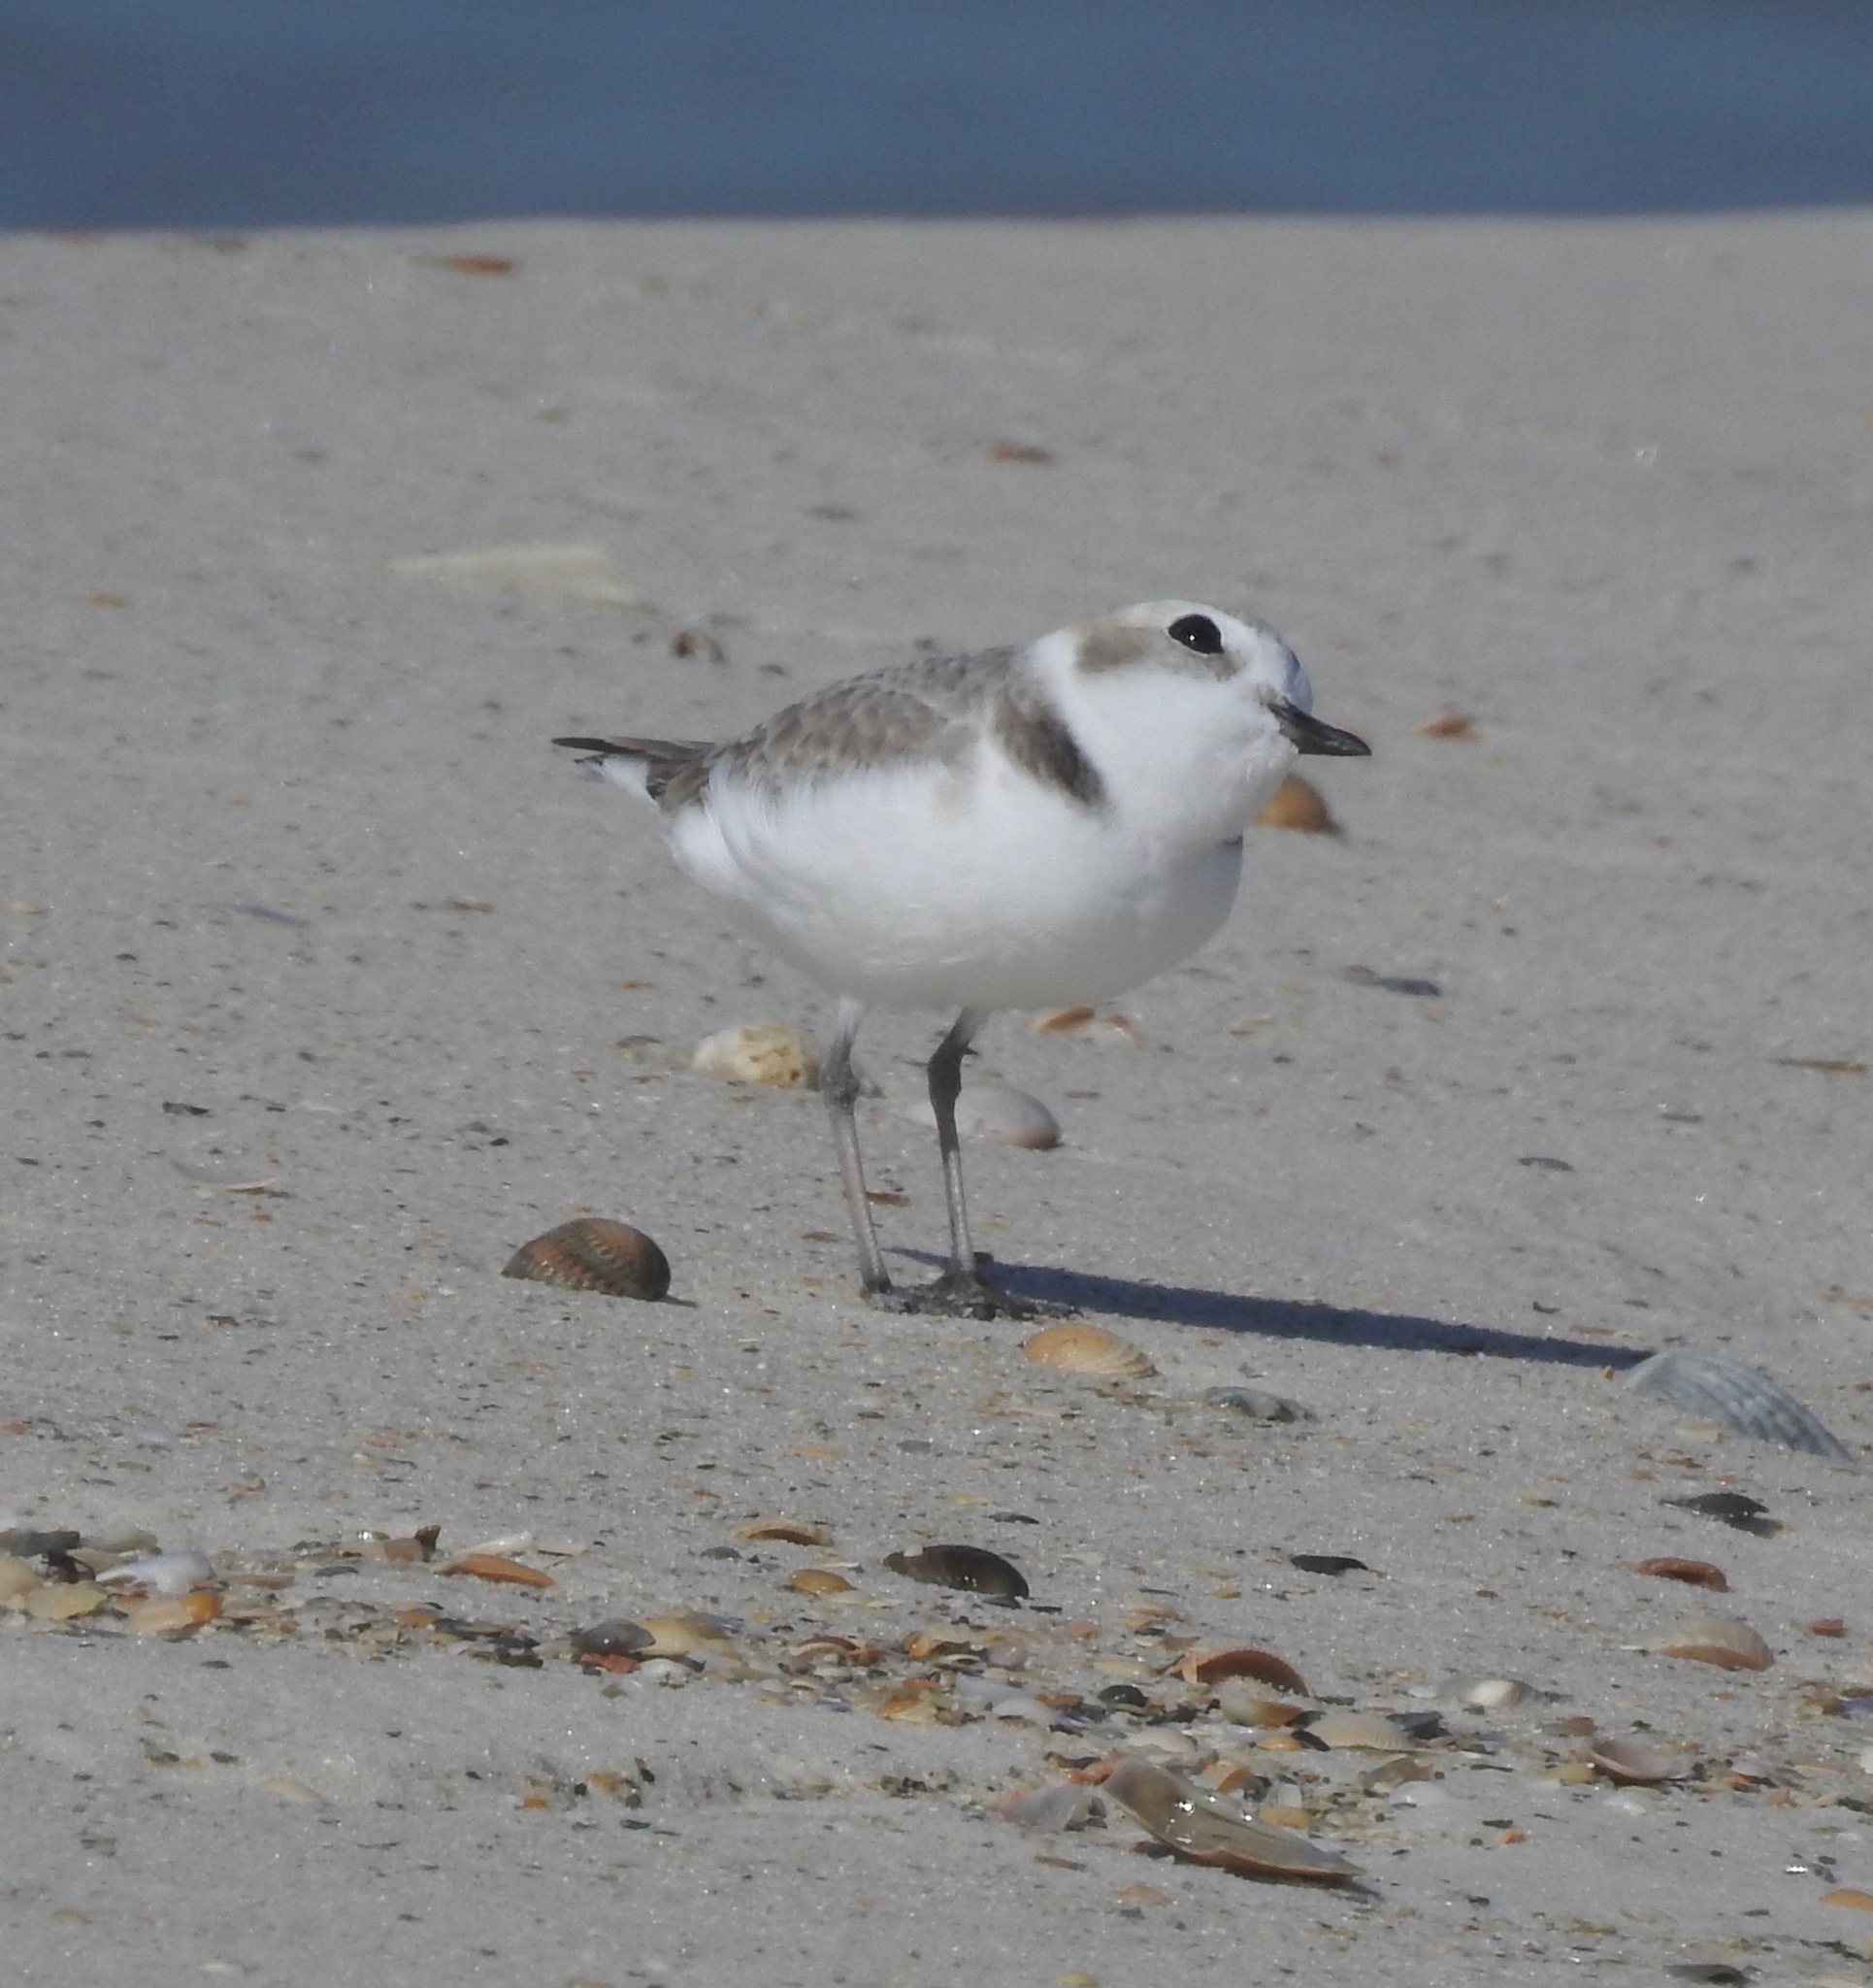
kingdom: Animalia
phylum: Chordata
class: Aves
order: Charadriiformes
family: Charadriidae
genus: Anarhynchus
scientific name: Anarhynchus
